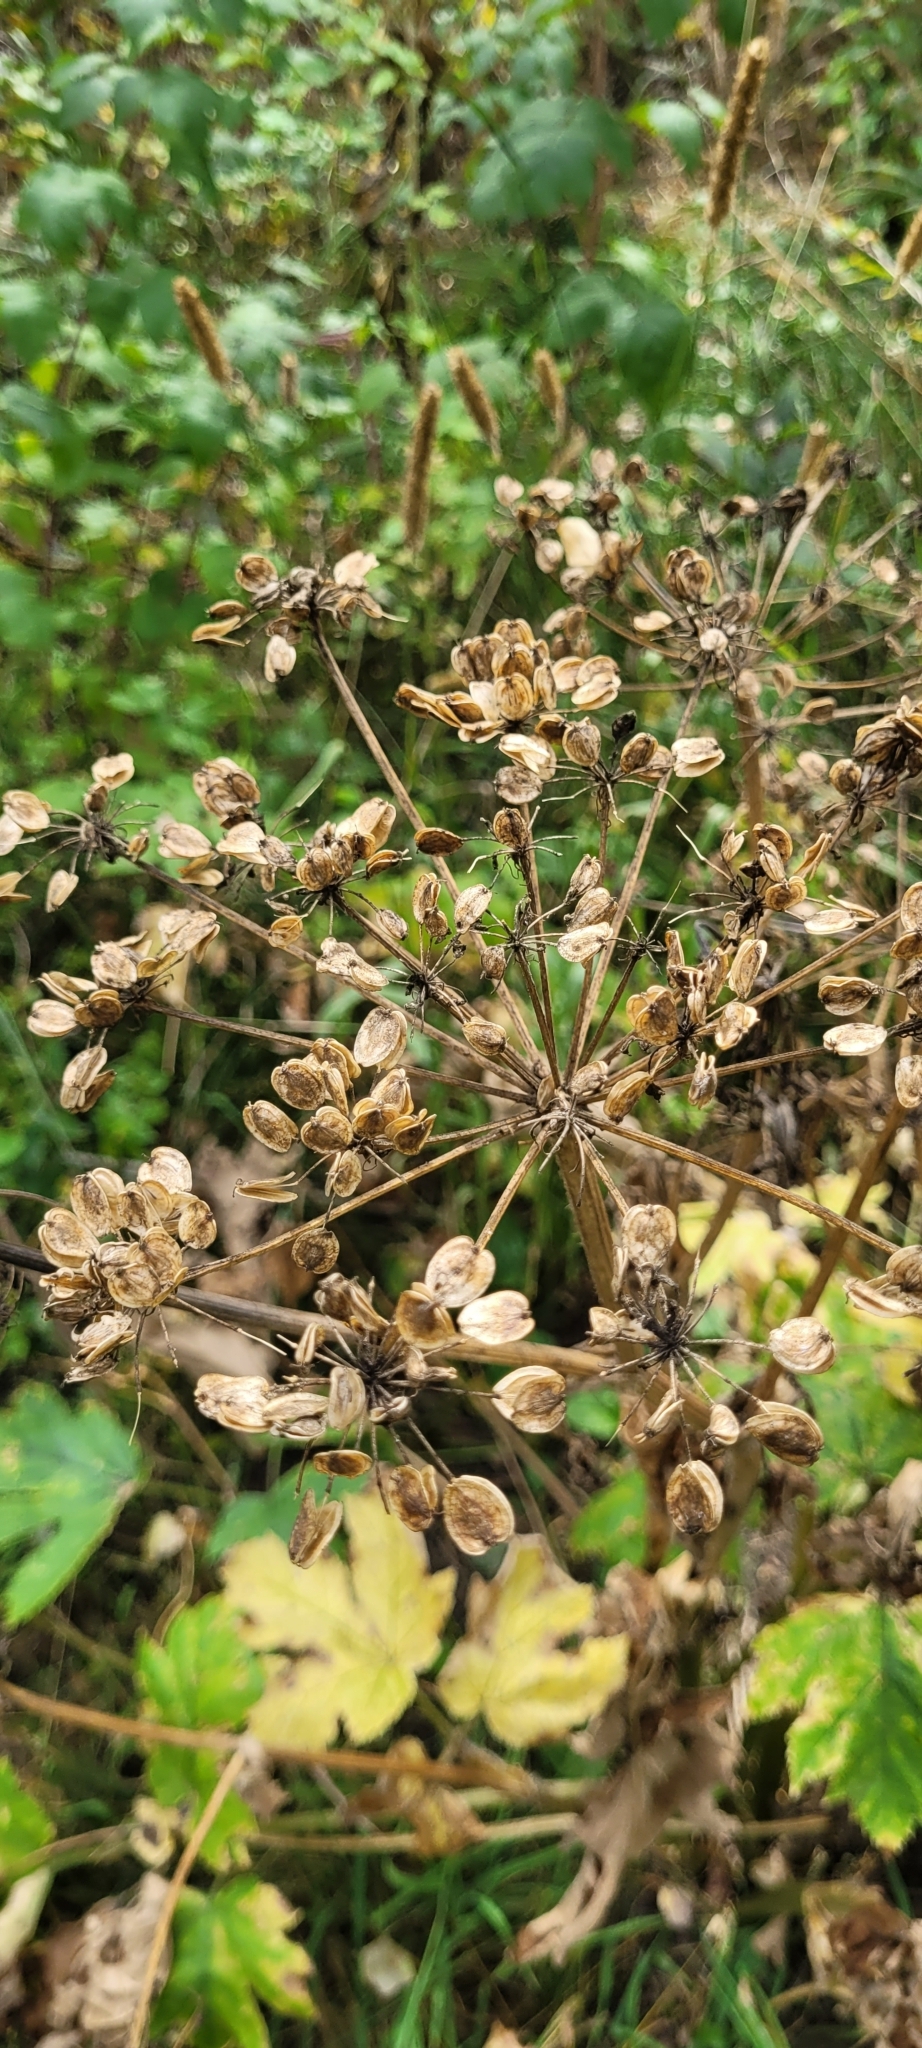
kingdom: Plantae
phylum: Tracheophyta
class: Magnoliopsida
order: Apiales
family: Apiaceae
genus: Heracleum
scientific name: Heracleum maximum
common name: American cow parsnip
